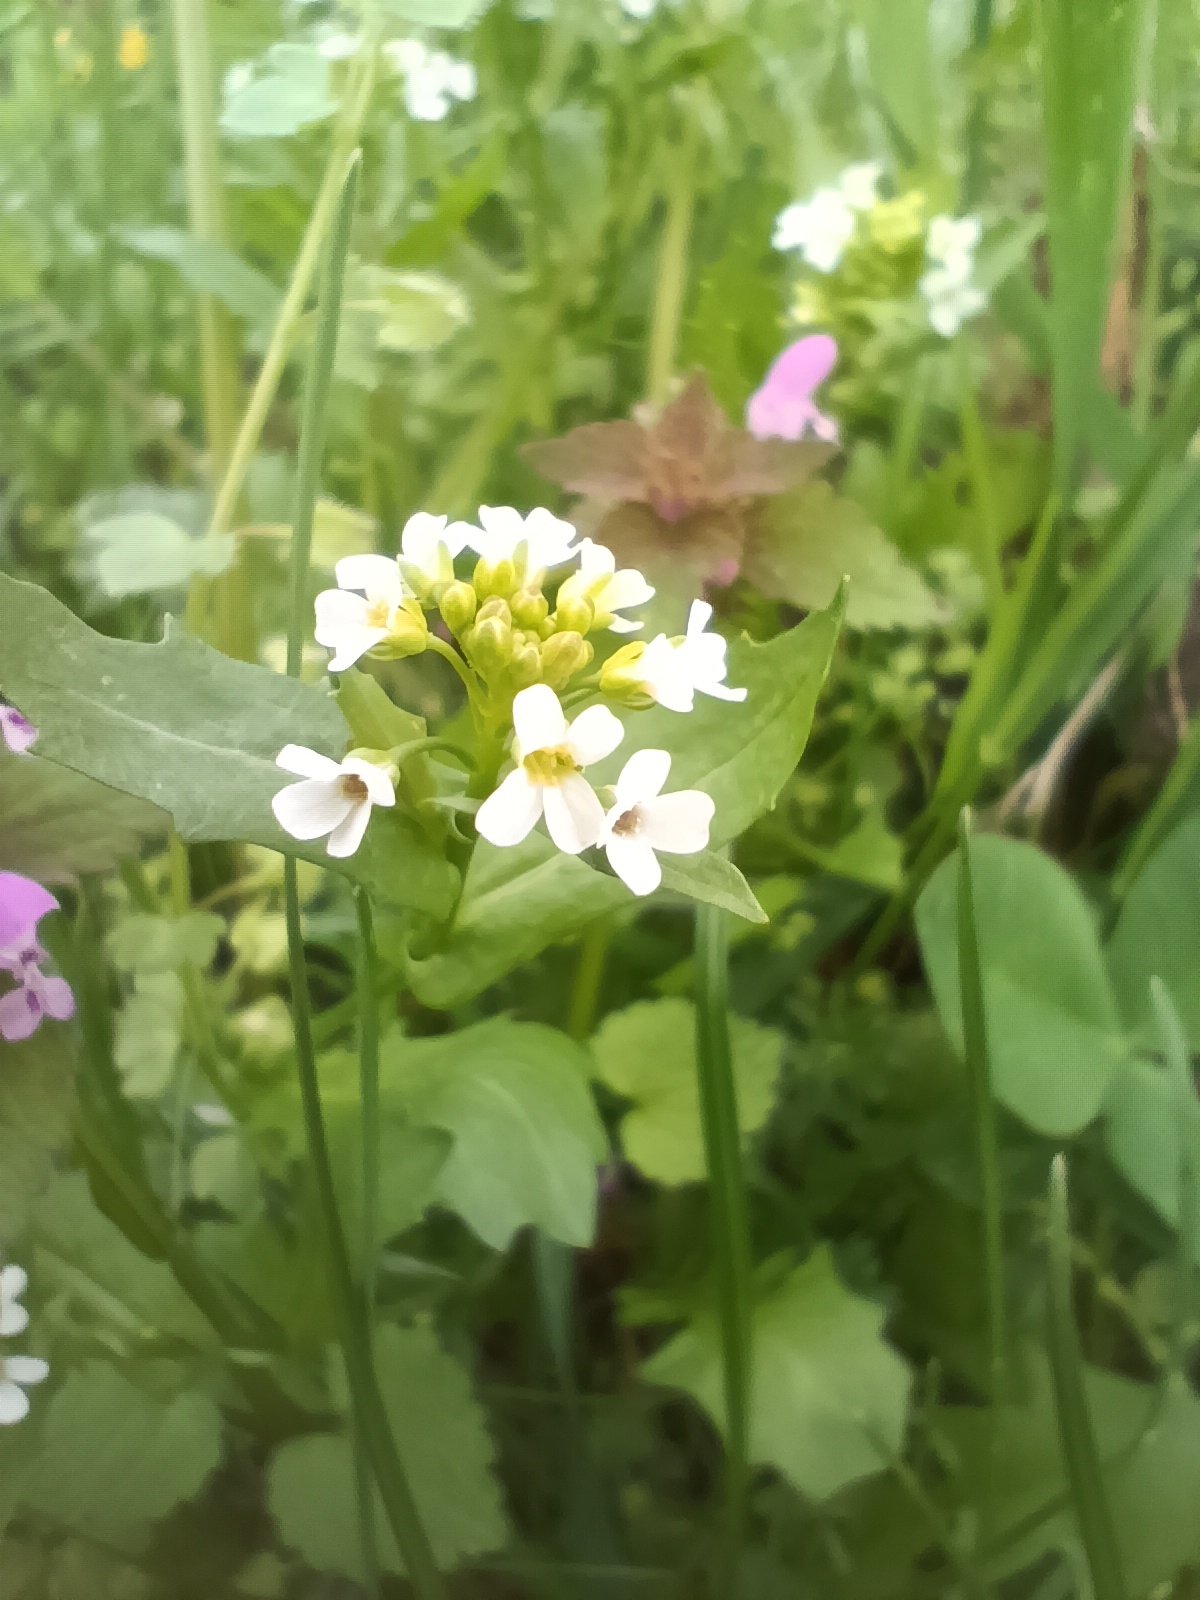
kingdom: Plantae
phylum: Tracheophyta
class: Magnoliopsida
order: Brassicales
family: Brassicaceae
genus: Calepina
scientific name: Calepina irregularis
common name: White ballmustard
